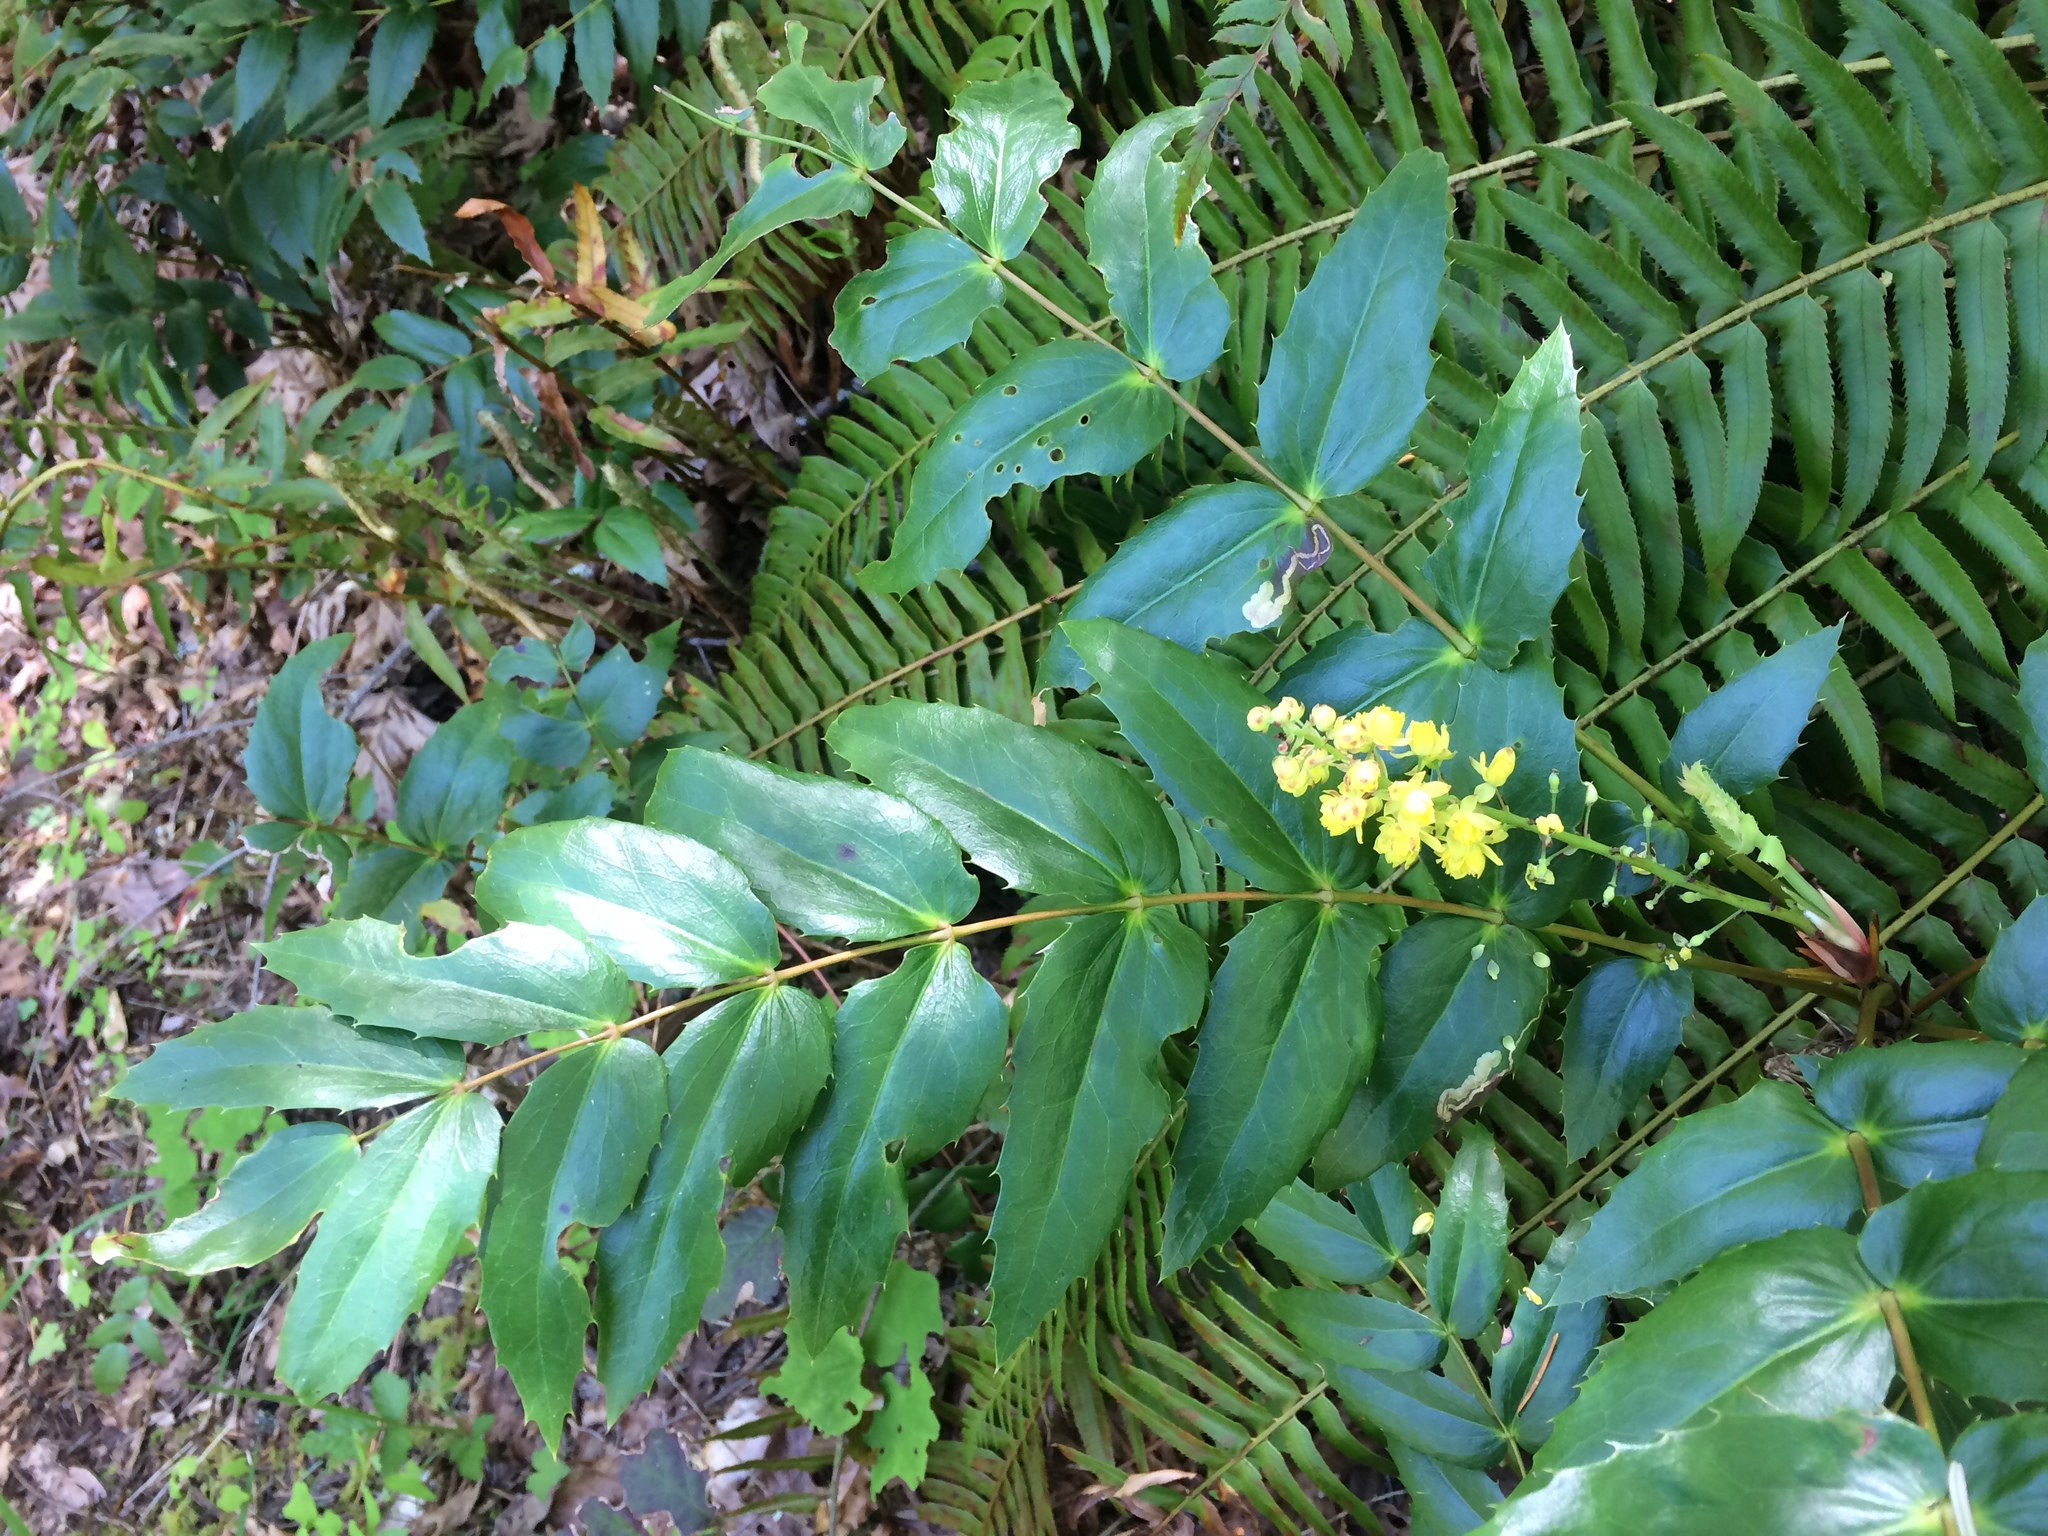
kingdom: Plantae
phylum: Tracheophyta
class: Magnoliopsida
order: Ranunculales
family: Berberidaceae
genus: Mahonia
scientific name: Mahonia nervosa
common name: Cascade oregon-grape
